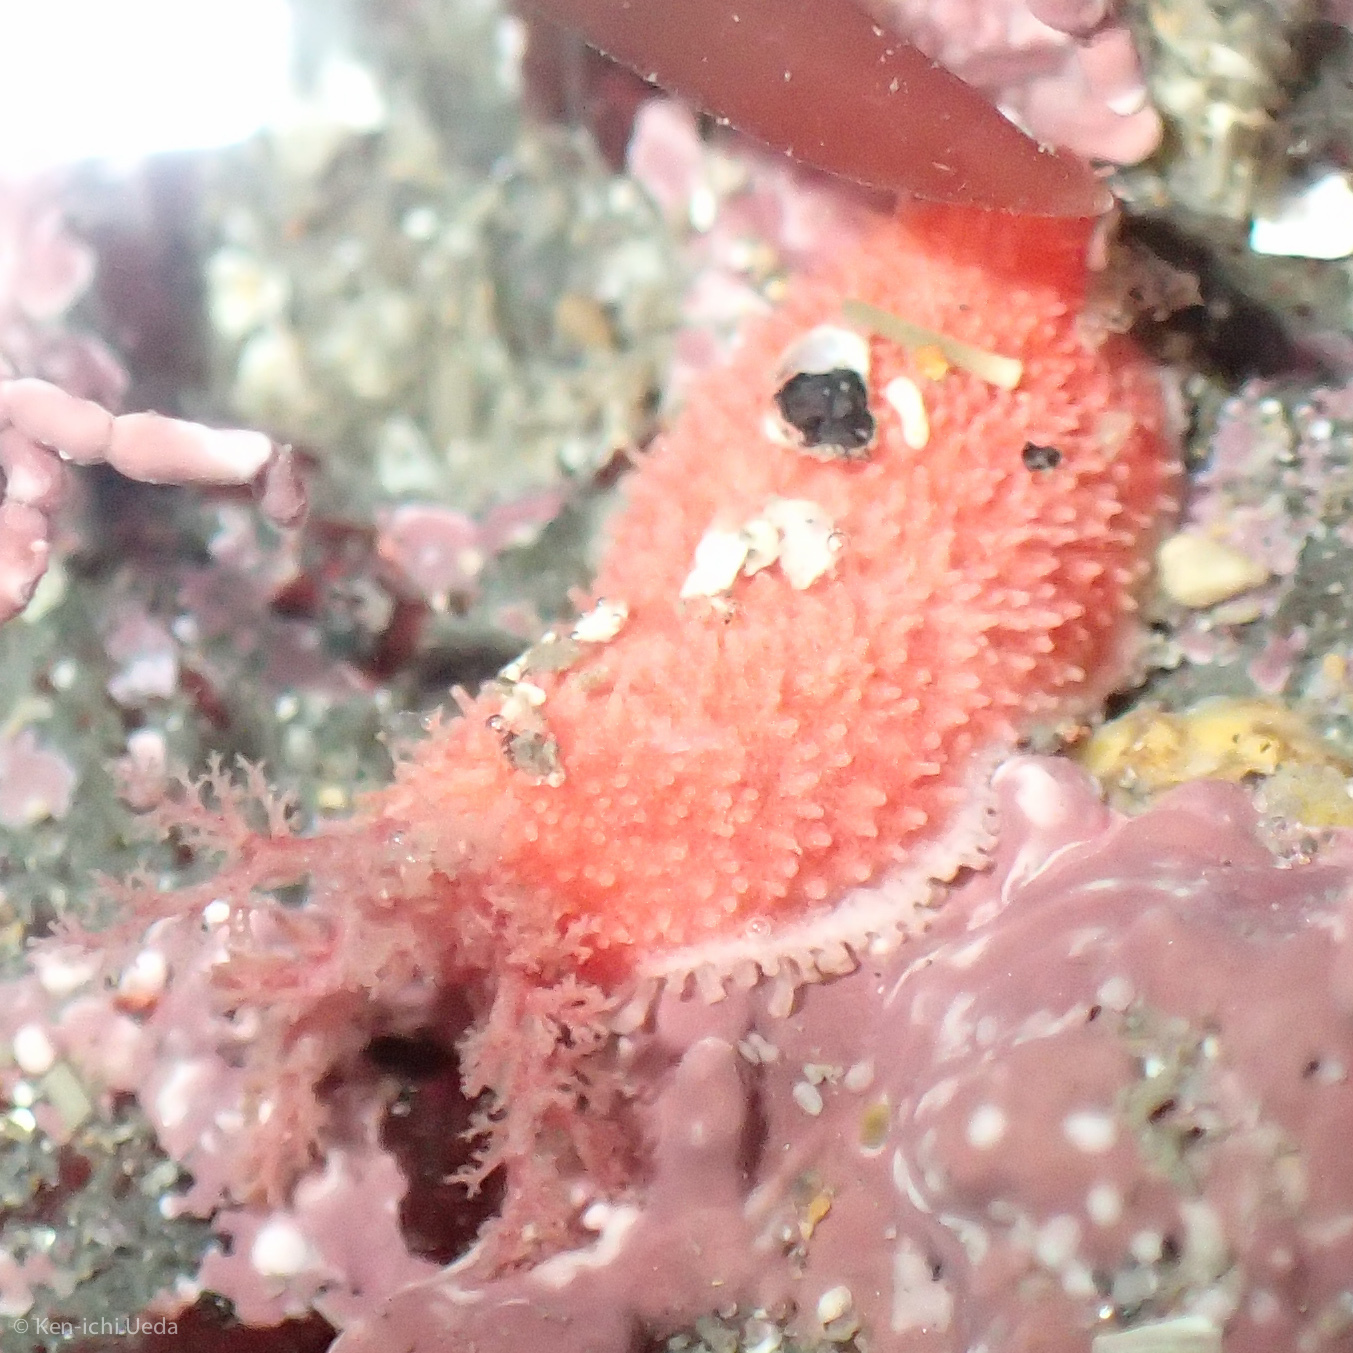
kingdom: Animalia
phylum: Echinodermata
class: Holothuroidea
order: Dendrochirotida
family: Psolidae
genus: Lissothuria
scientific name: Lissothuria nutriens
